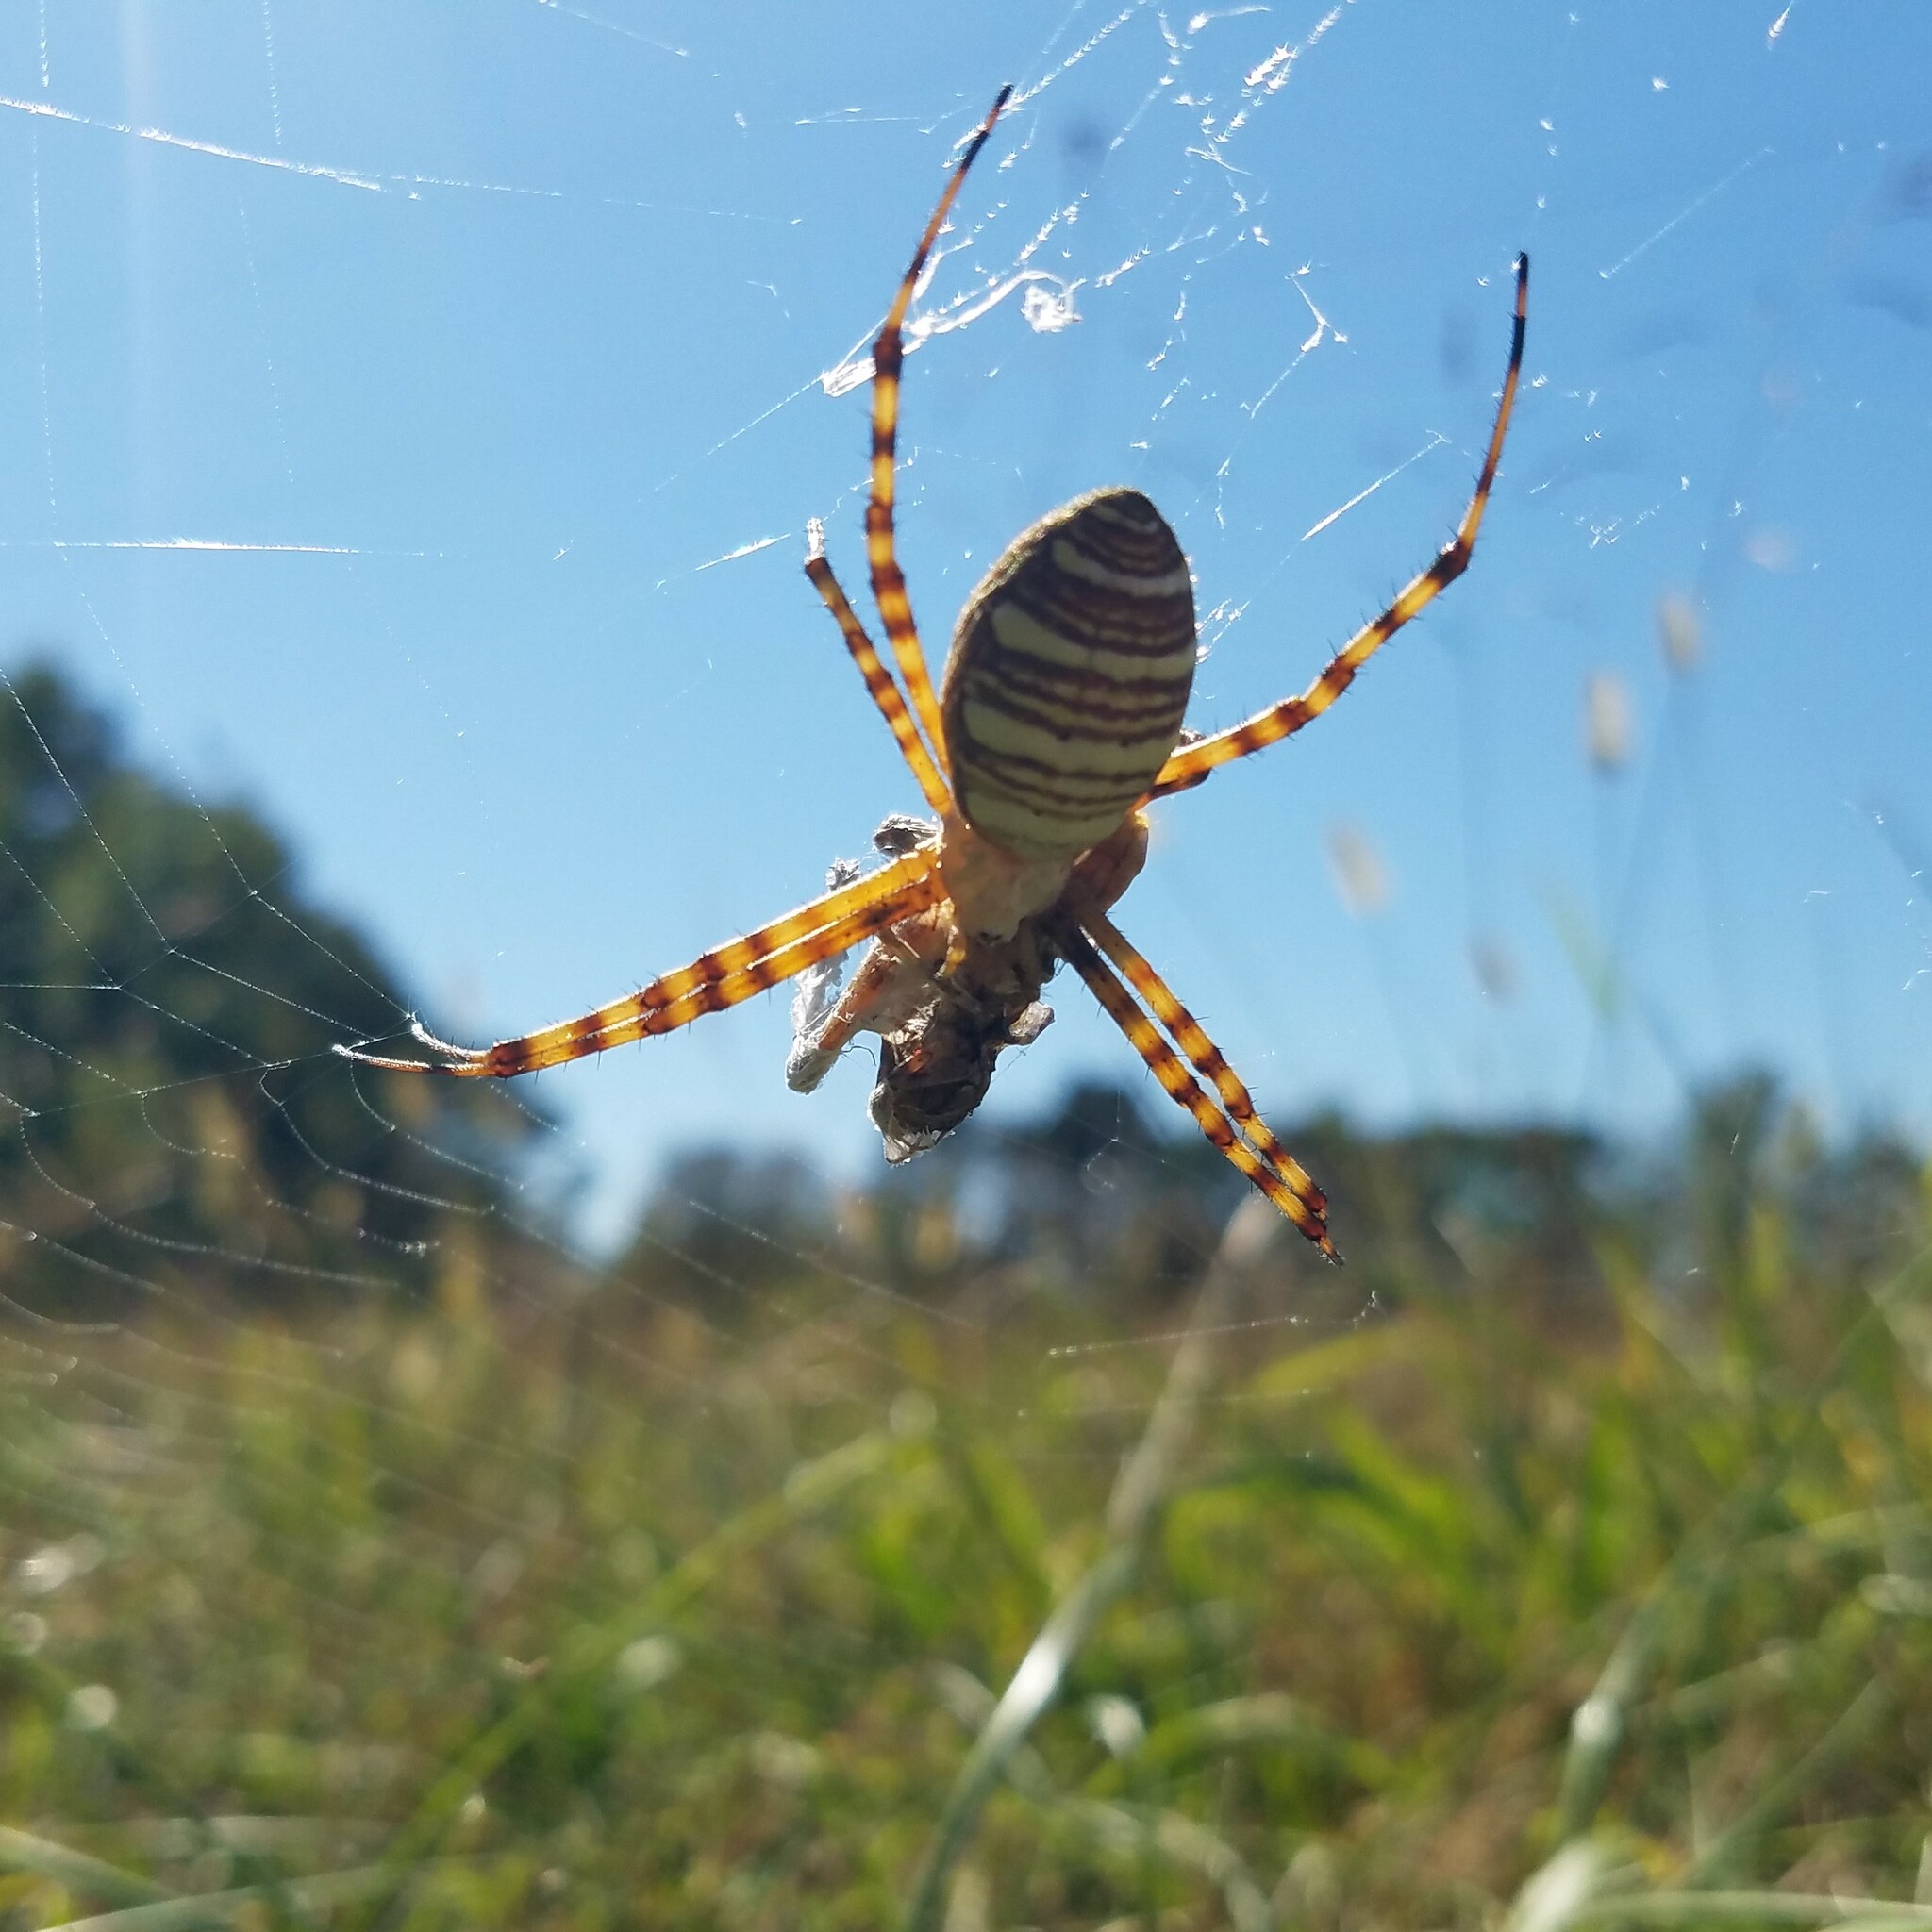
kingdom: Animalia
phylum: Arthropoda
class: Arachnida
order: Araneae
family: Araneidae
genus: Argiope
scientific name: Argiope trifasciata
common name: Banded garden spider
